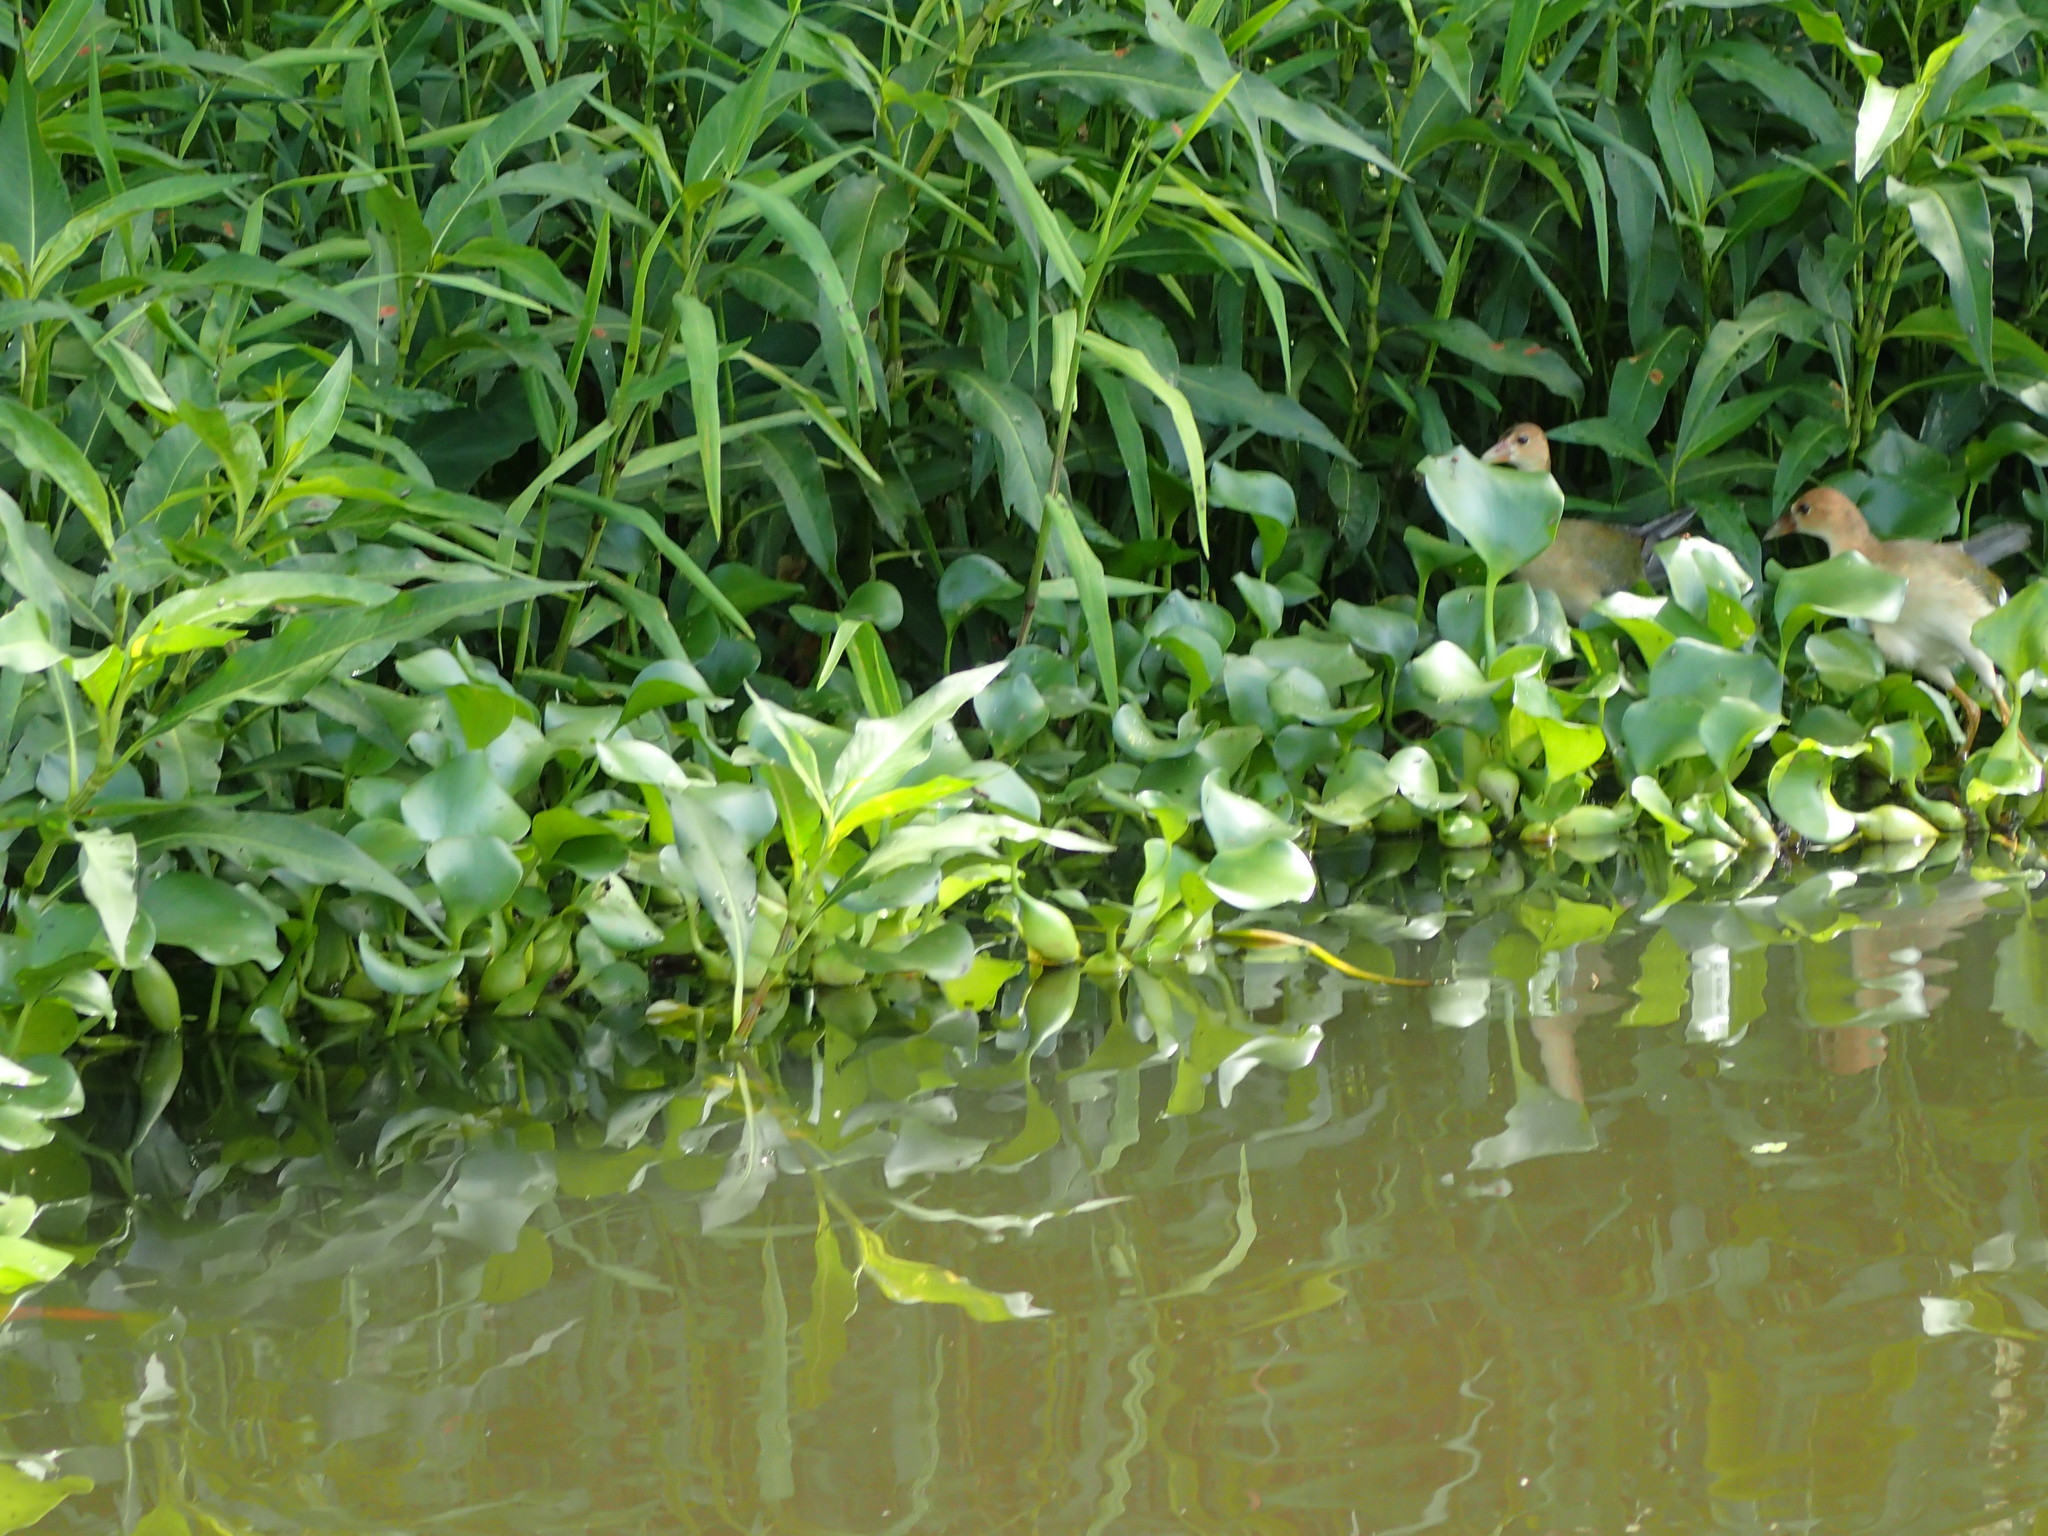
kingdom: Animalia
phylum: Chordata
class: Aves
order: Gruiformes
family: Rallidae
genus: Porphyrio
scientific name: Porphyrio martinica
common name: Purple gallinule
